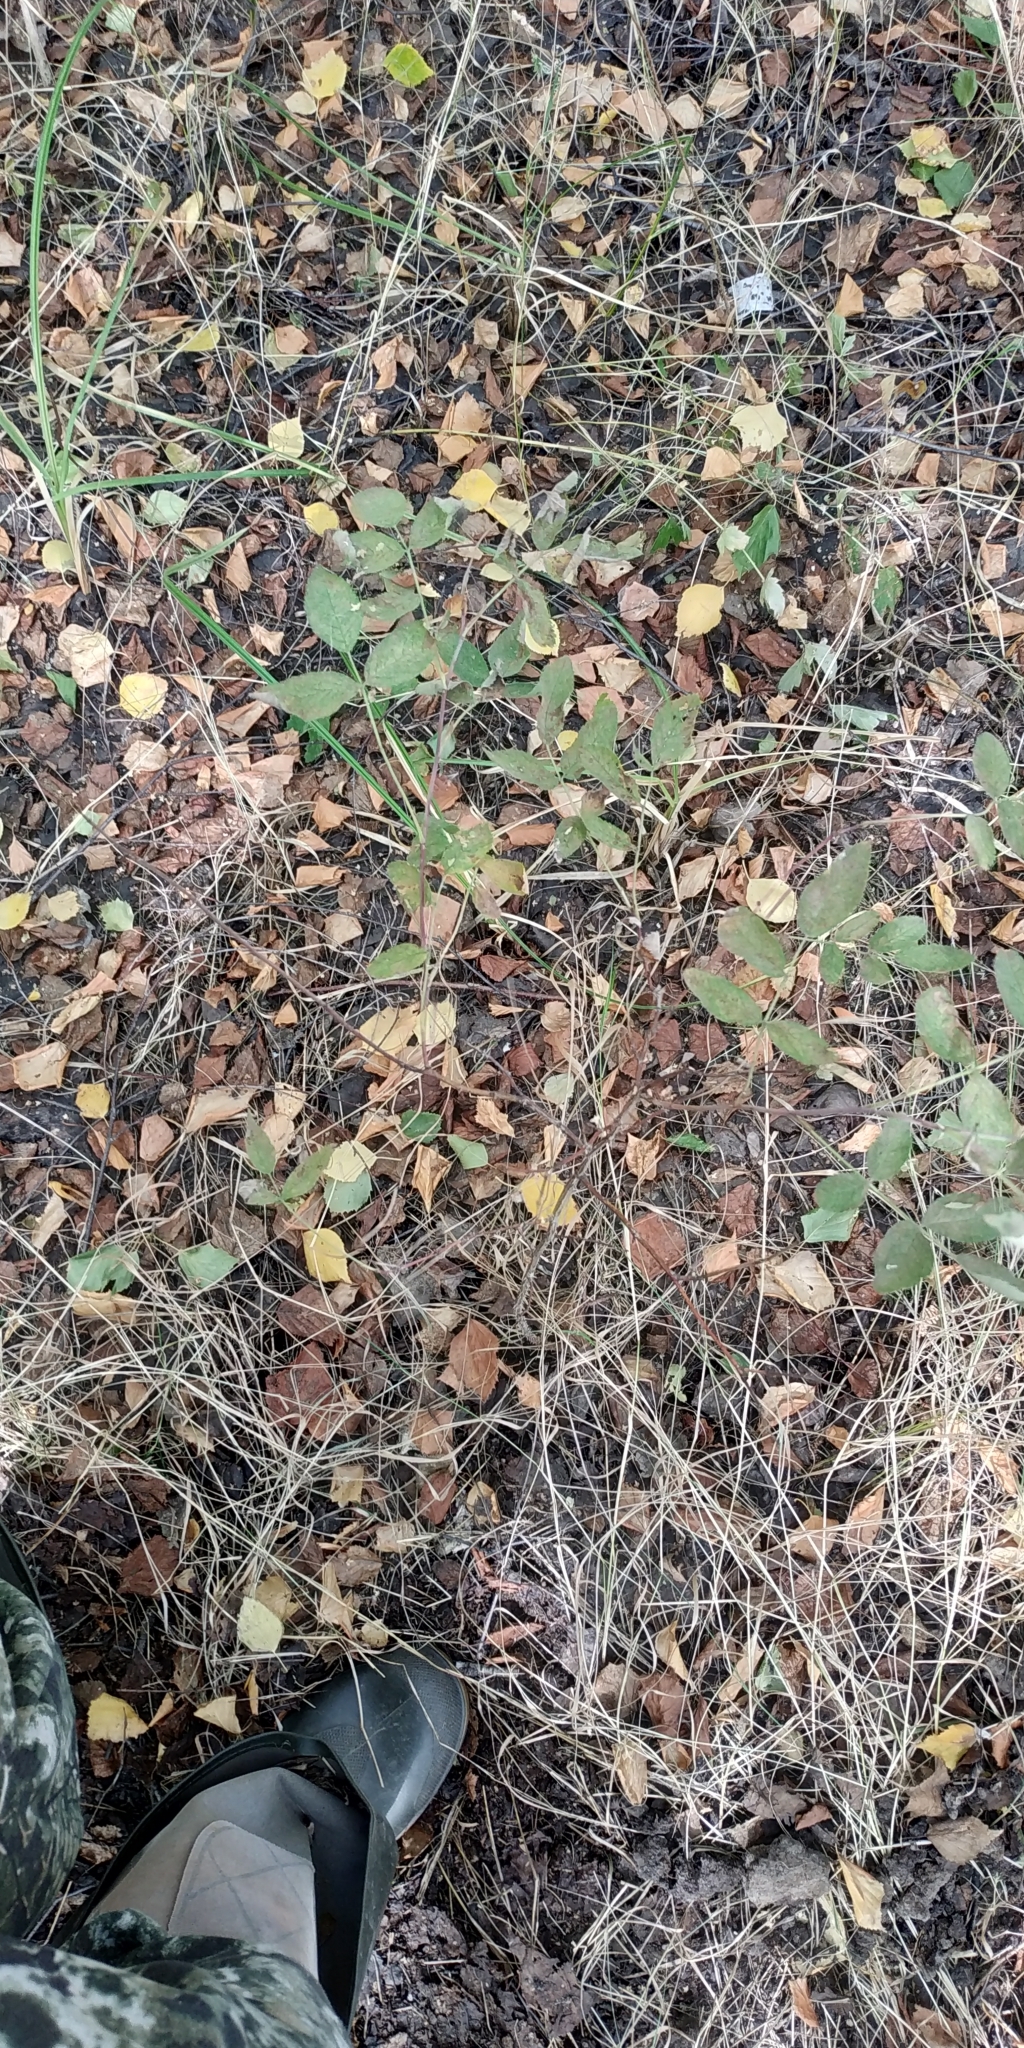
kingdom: Plantae
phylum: Tracheophyta
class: Magnoliopsida
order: Rosales
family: Rosaceae
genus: Rosa
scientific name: Rosa
